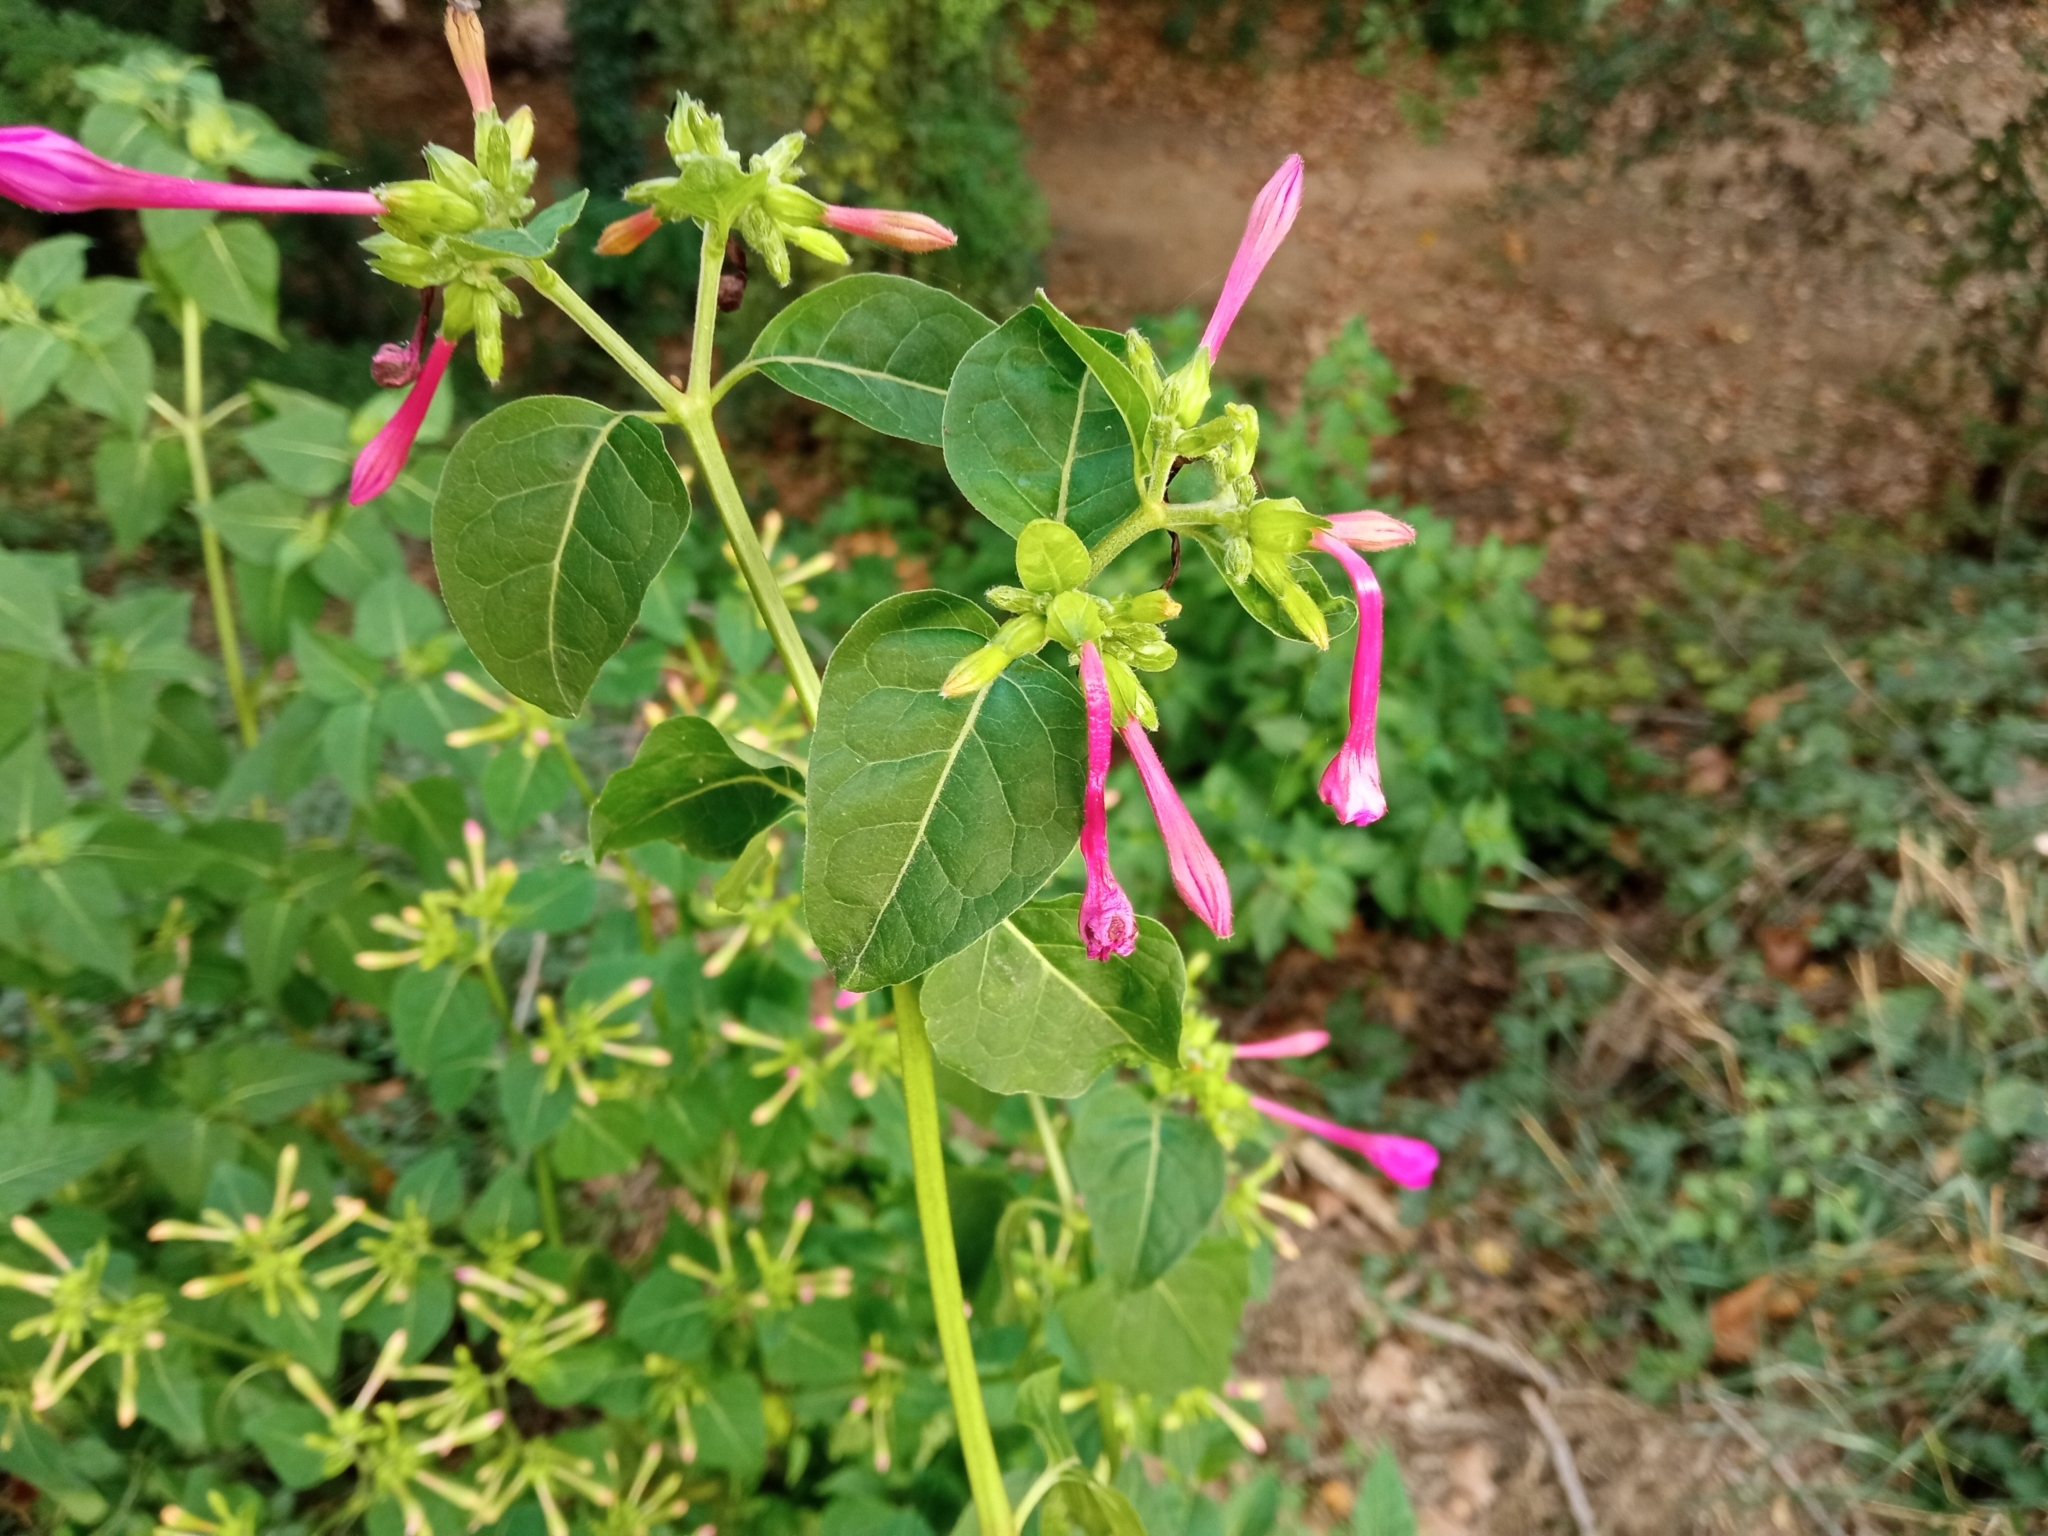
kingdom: Plantae
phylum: Tracheophyta
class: Magnoliopsida
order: Caryophyllales
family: Nyctaginaceae
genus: Mirabilis
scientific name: Mirabilis jalapa
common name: Marvel-of-peru
